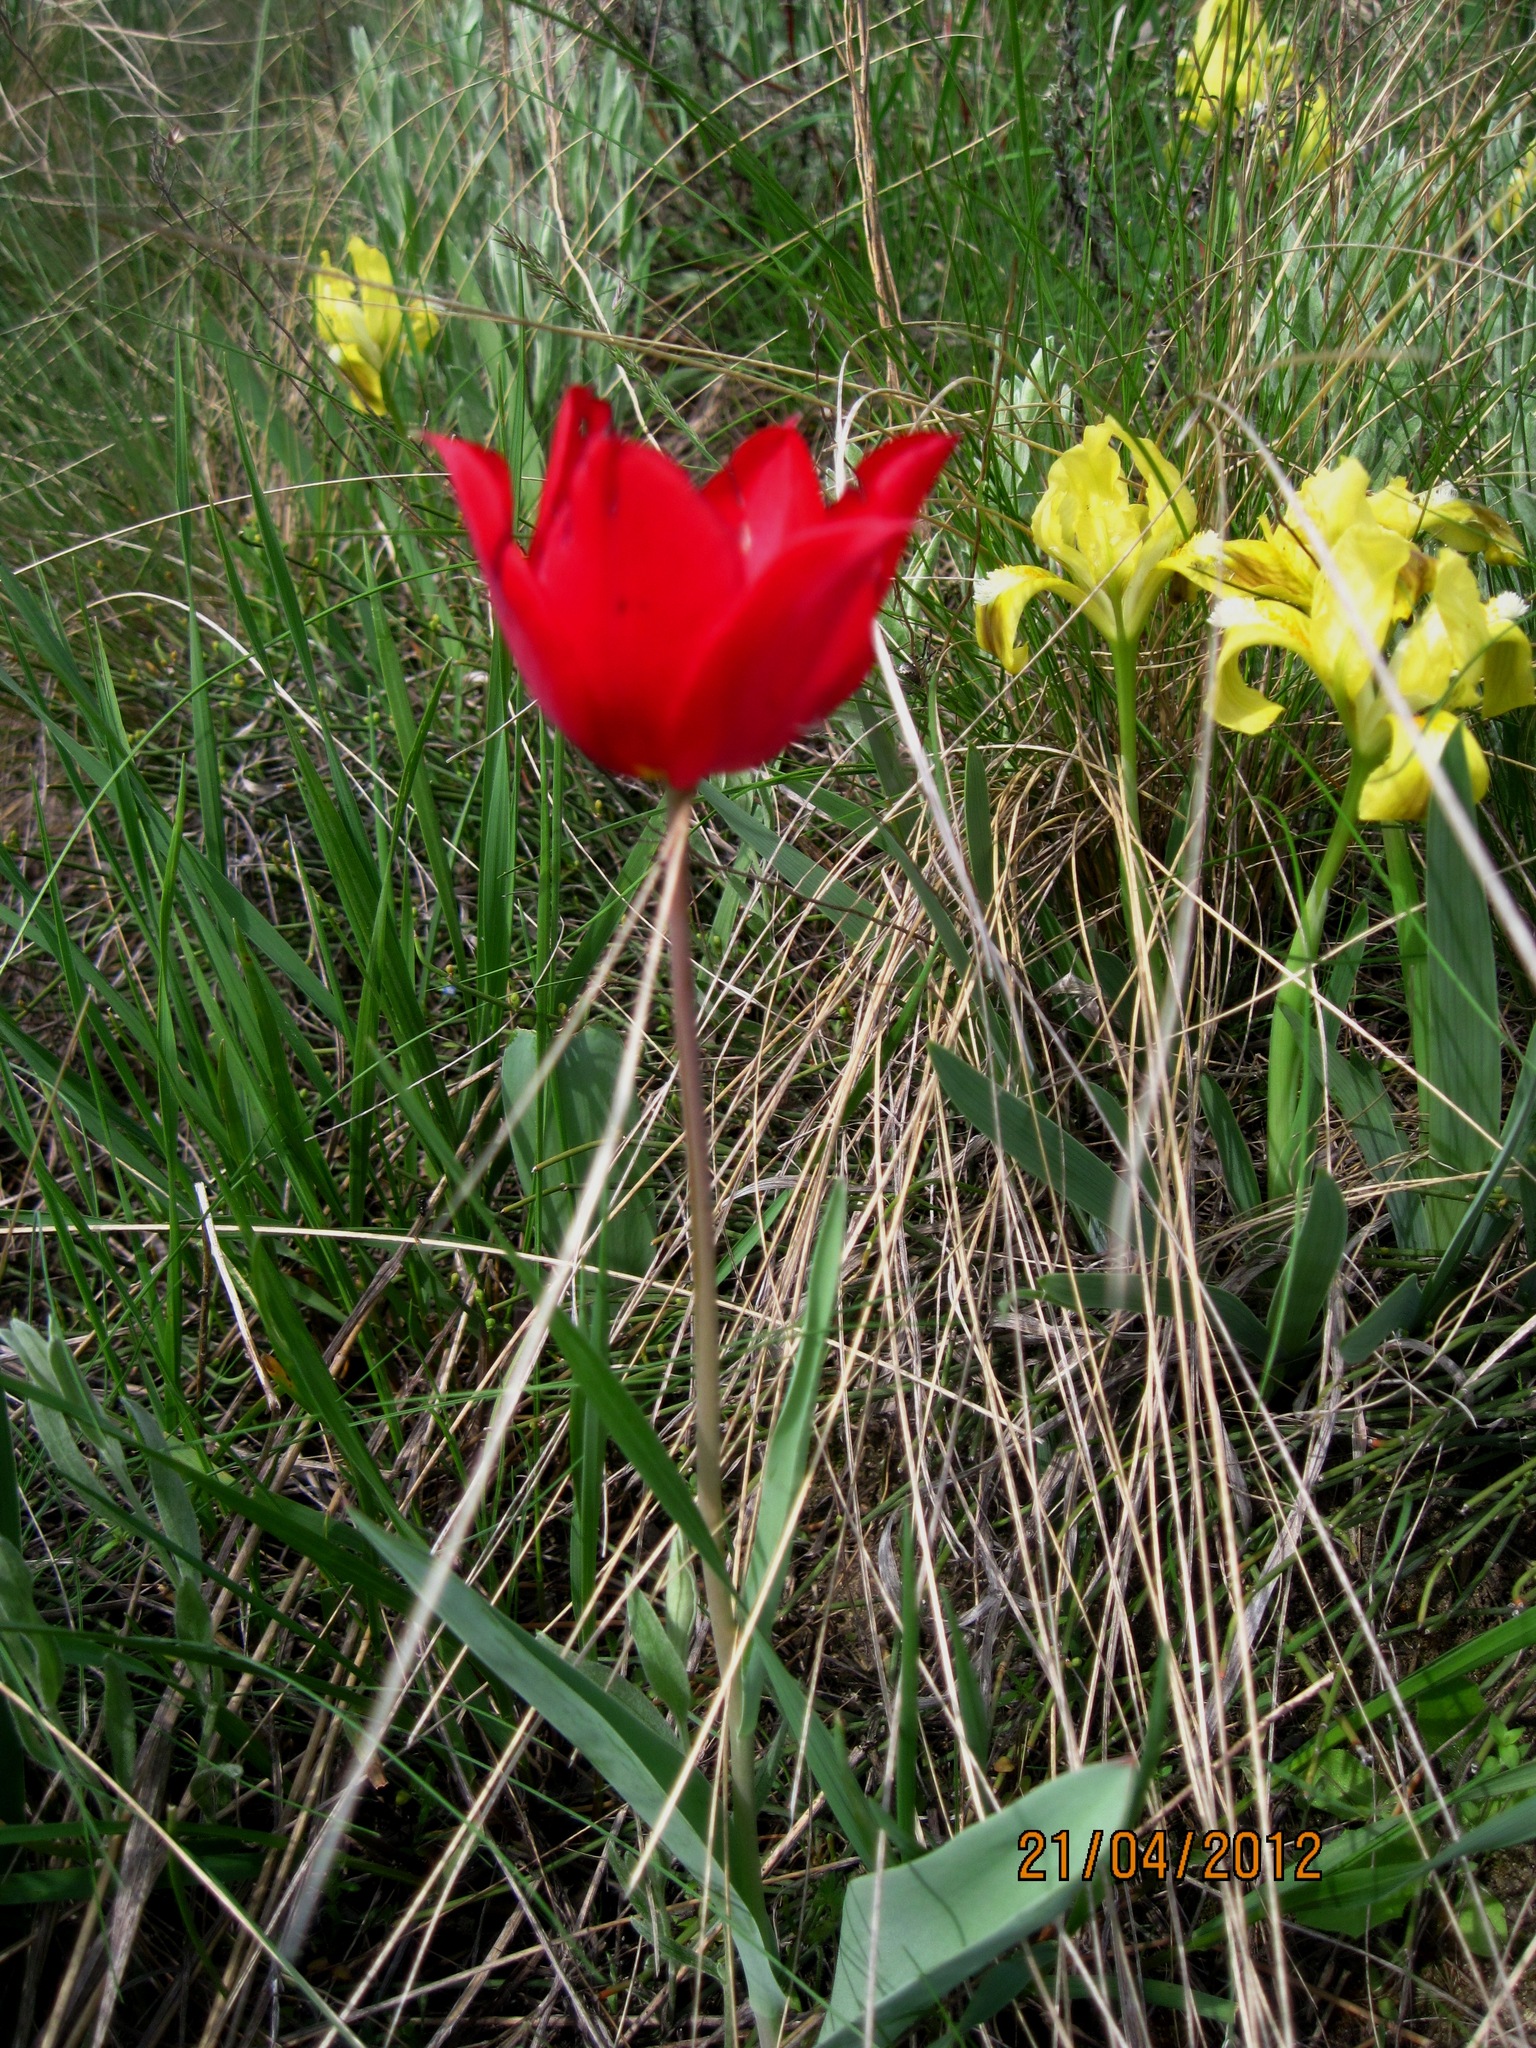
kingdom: Plantae
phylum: Tracheophyta
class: Liliopsida
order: Liliales
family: Liliaceae
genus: Tulipa
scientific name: Tulipa suaveolens
